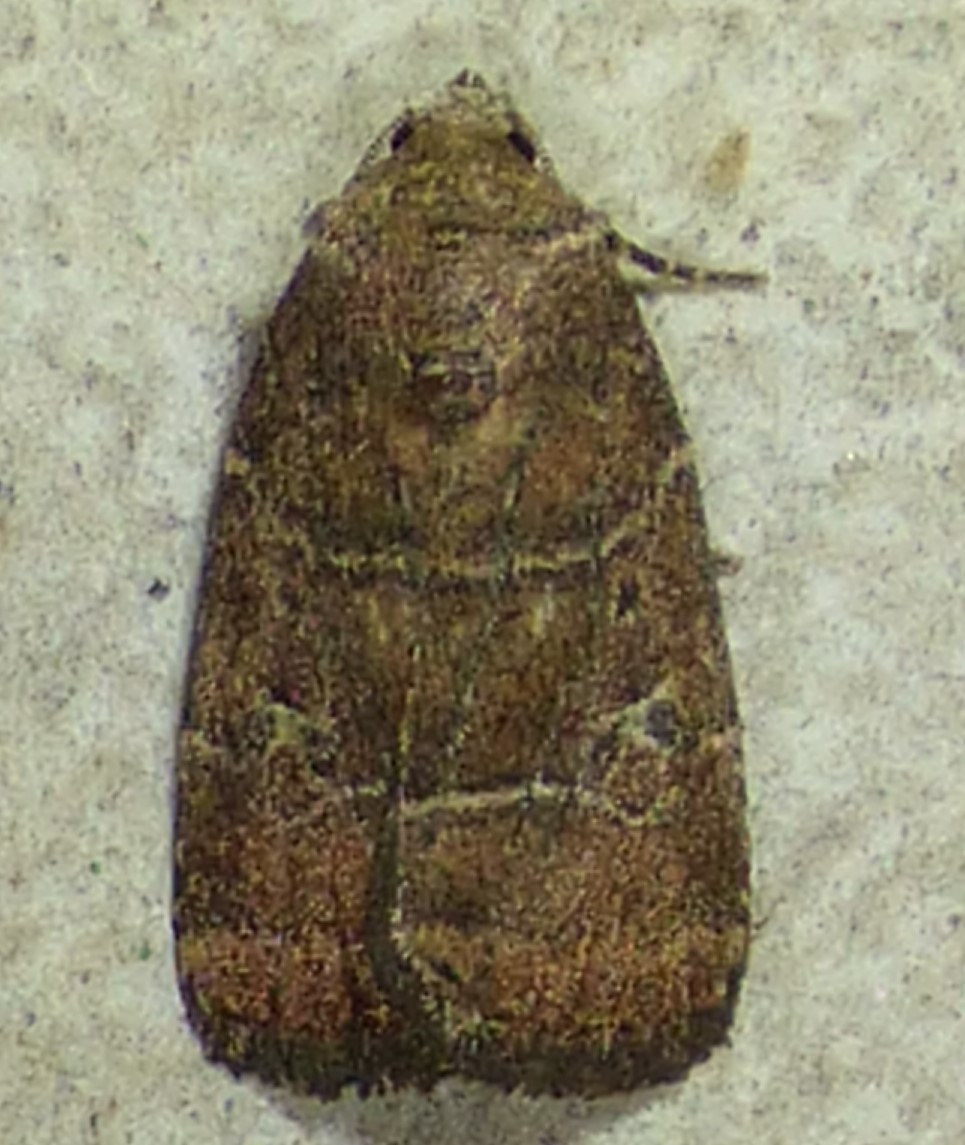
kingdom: Animalia
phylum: Arthropoda
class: Insecta
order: Lepidoptera
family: Noctuidae
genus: Elaphria
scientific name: Elaphria grata
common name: Grateful midget moth
